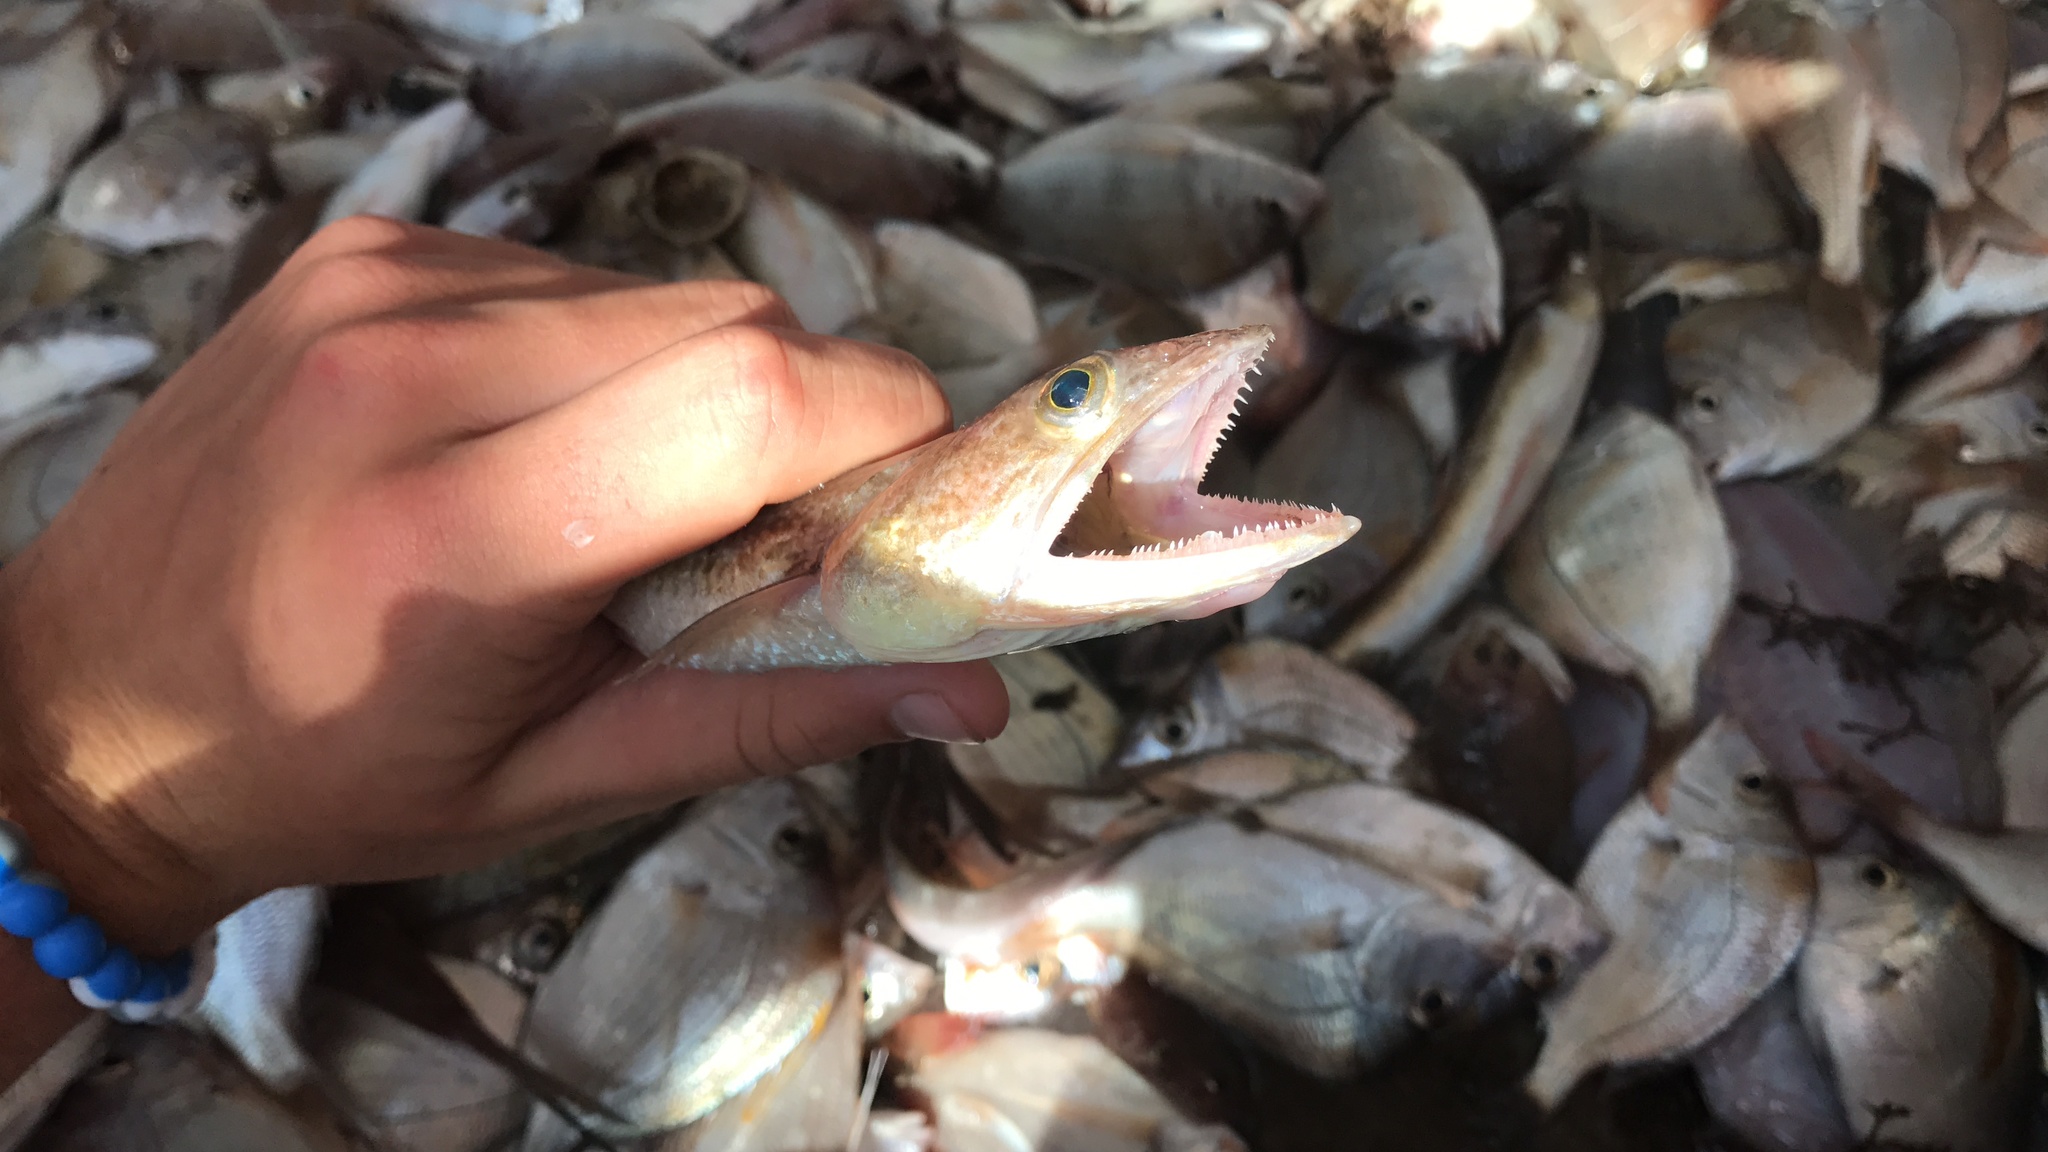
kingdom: Animalia
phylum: Chordata
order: Aulopiformes
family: Synodontidae
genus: Synodus
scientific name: Synodus foetens
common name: Inshore lizardfish
